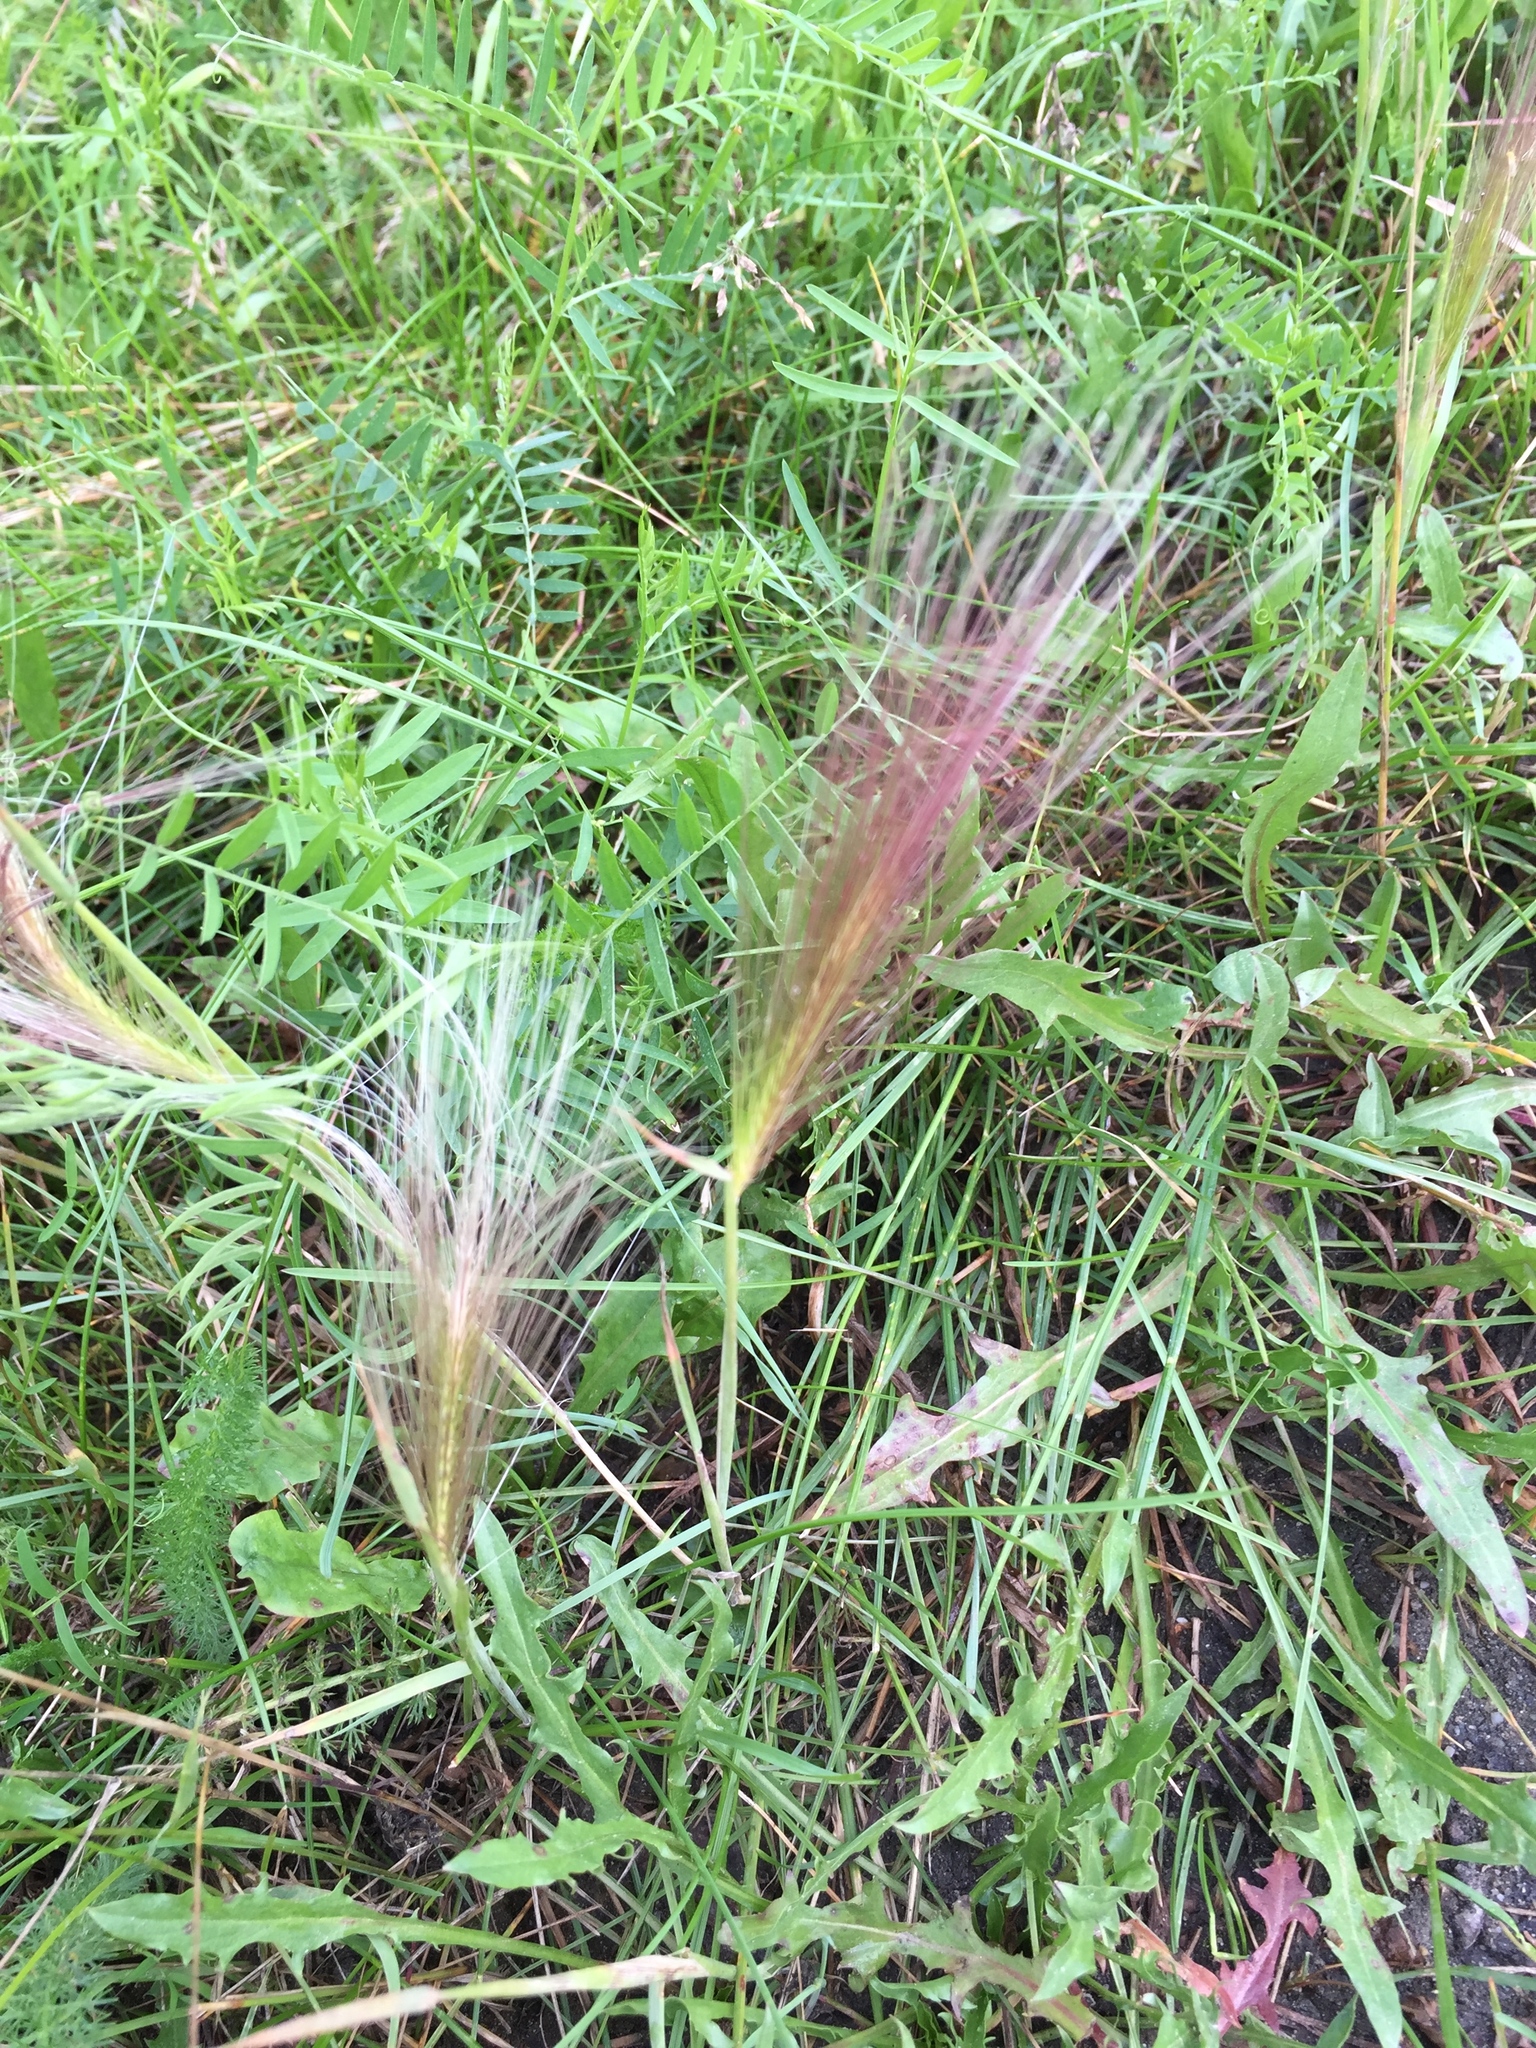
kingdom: Plantae
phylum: Tracheophyta
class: Liliopsida
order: Poales
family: Poaceae
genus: Hordeum
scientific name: Hordeum jubatum
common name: Foxtail barley
